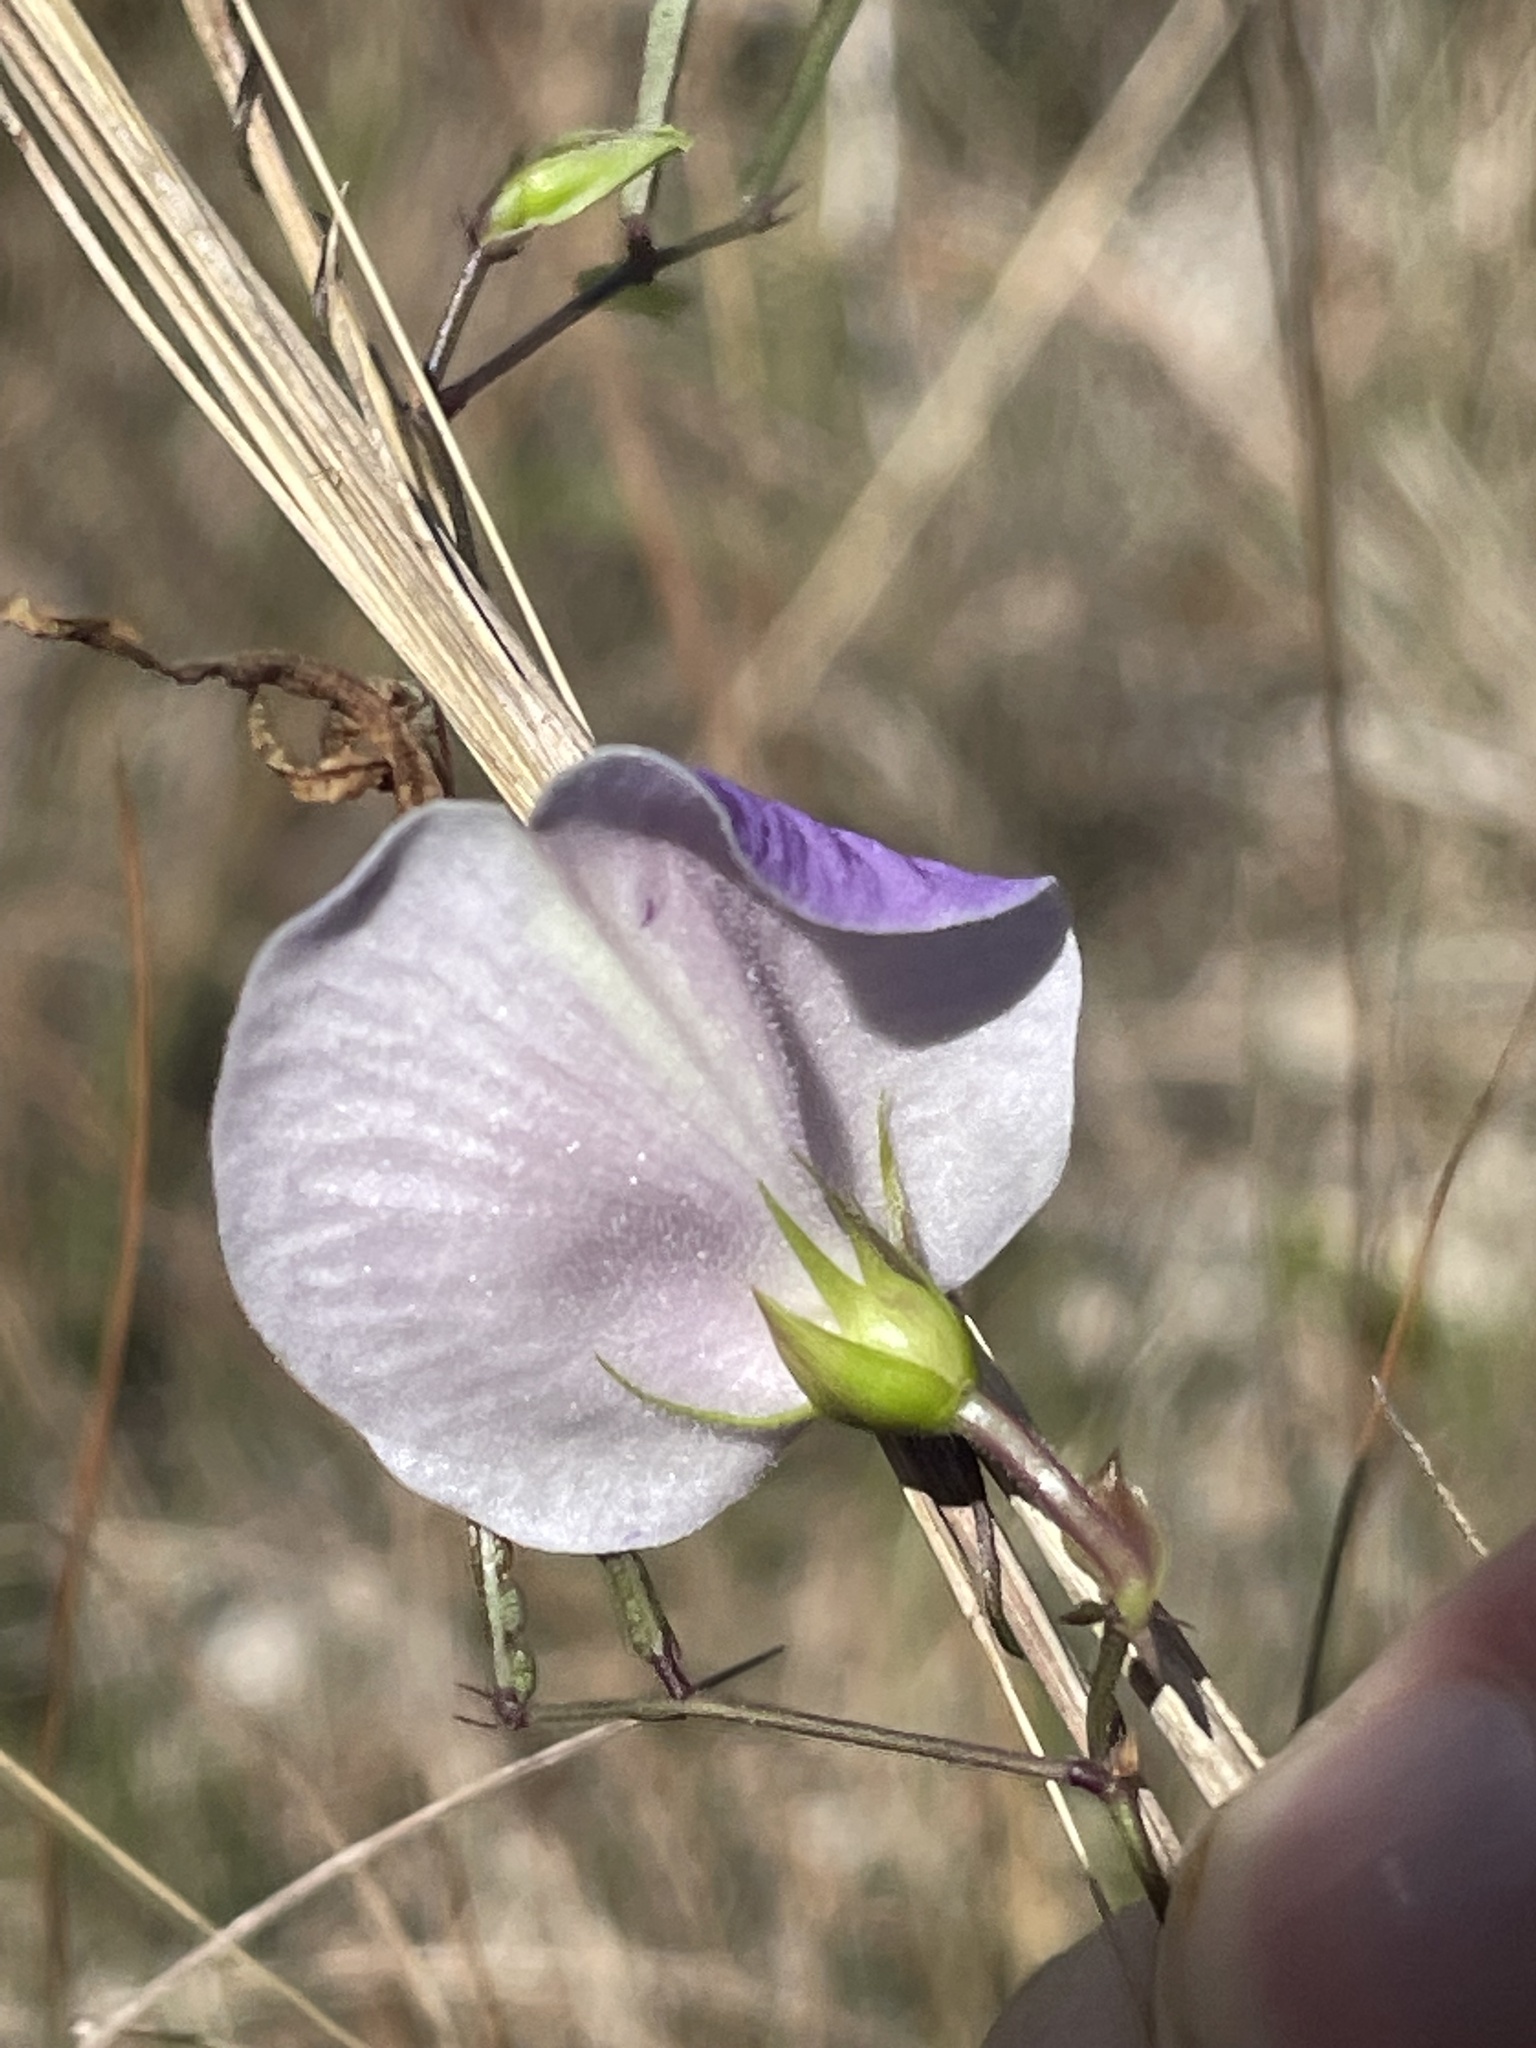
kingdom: Plantae
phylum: Tracheophyta
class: Magnoliopsida
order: Fabales
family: Fabaceae
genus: Centrosema
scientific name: Centrosema virginianum
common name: Butterfly-pea
